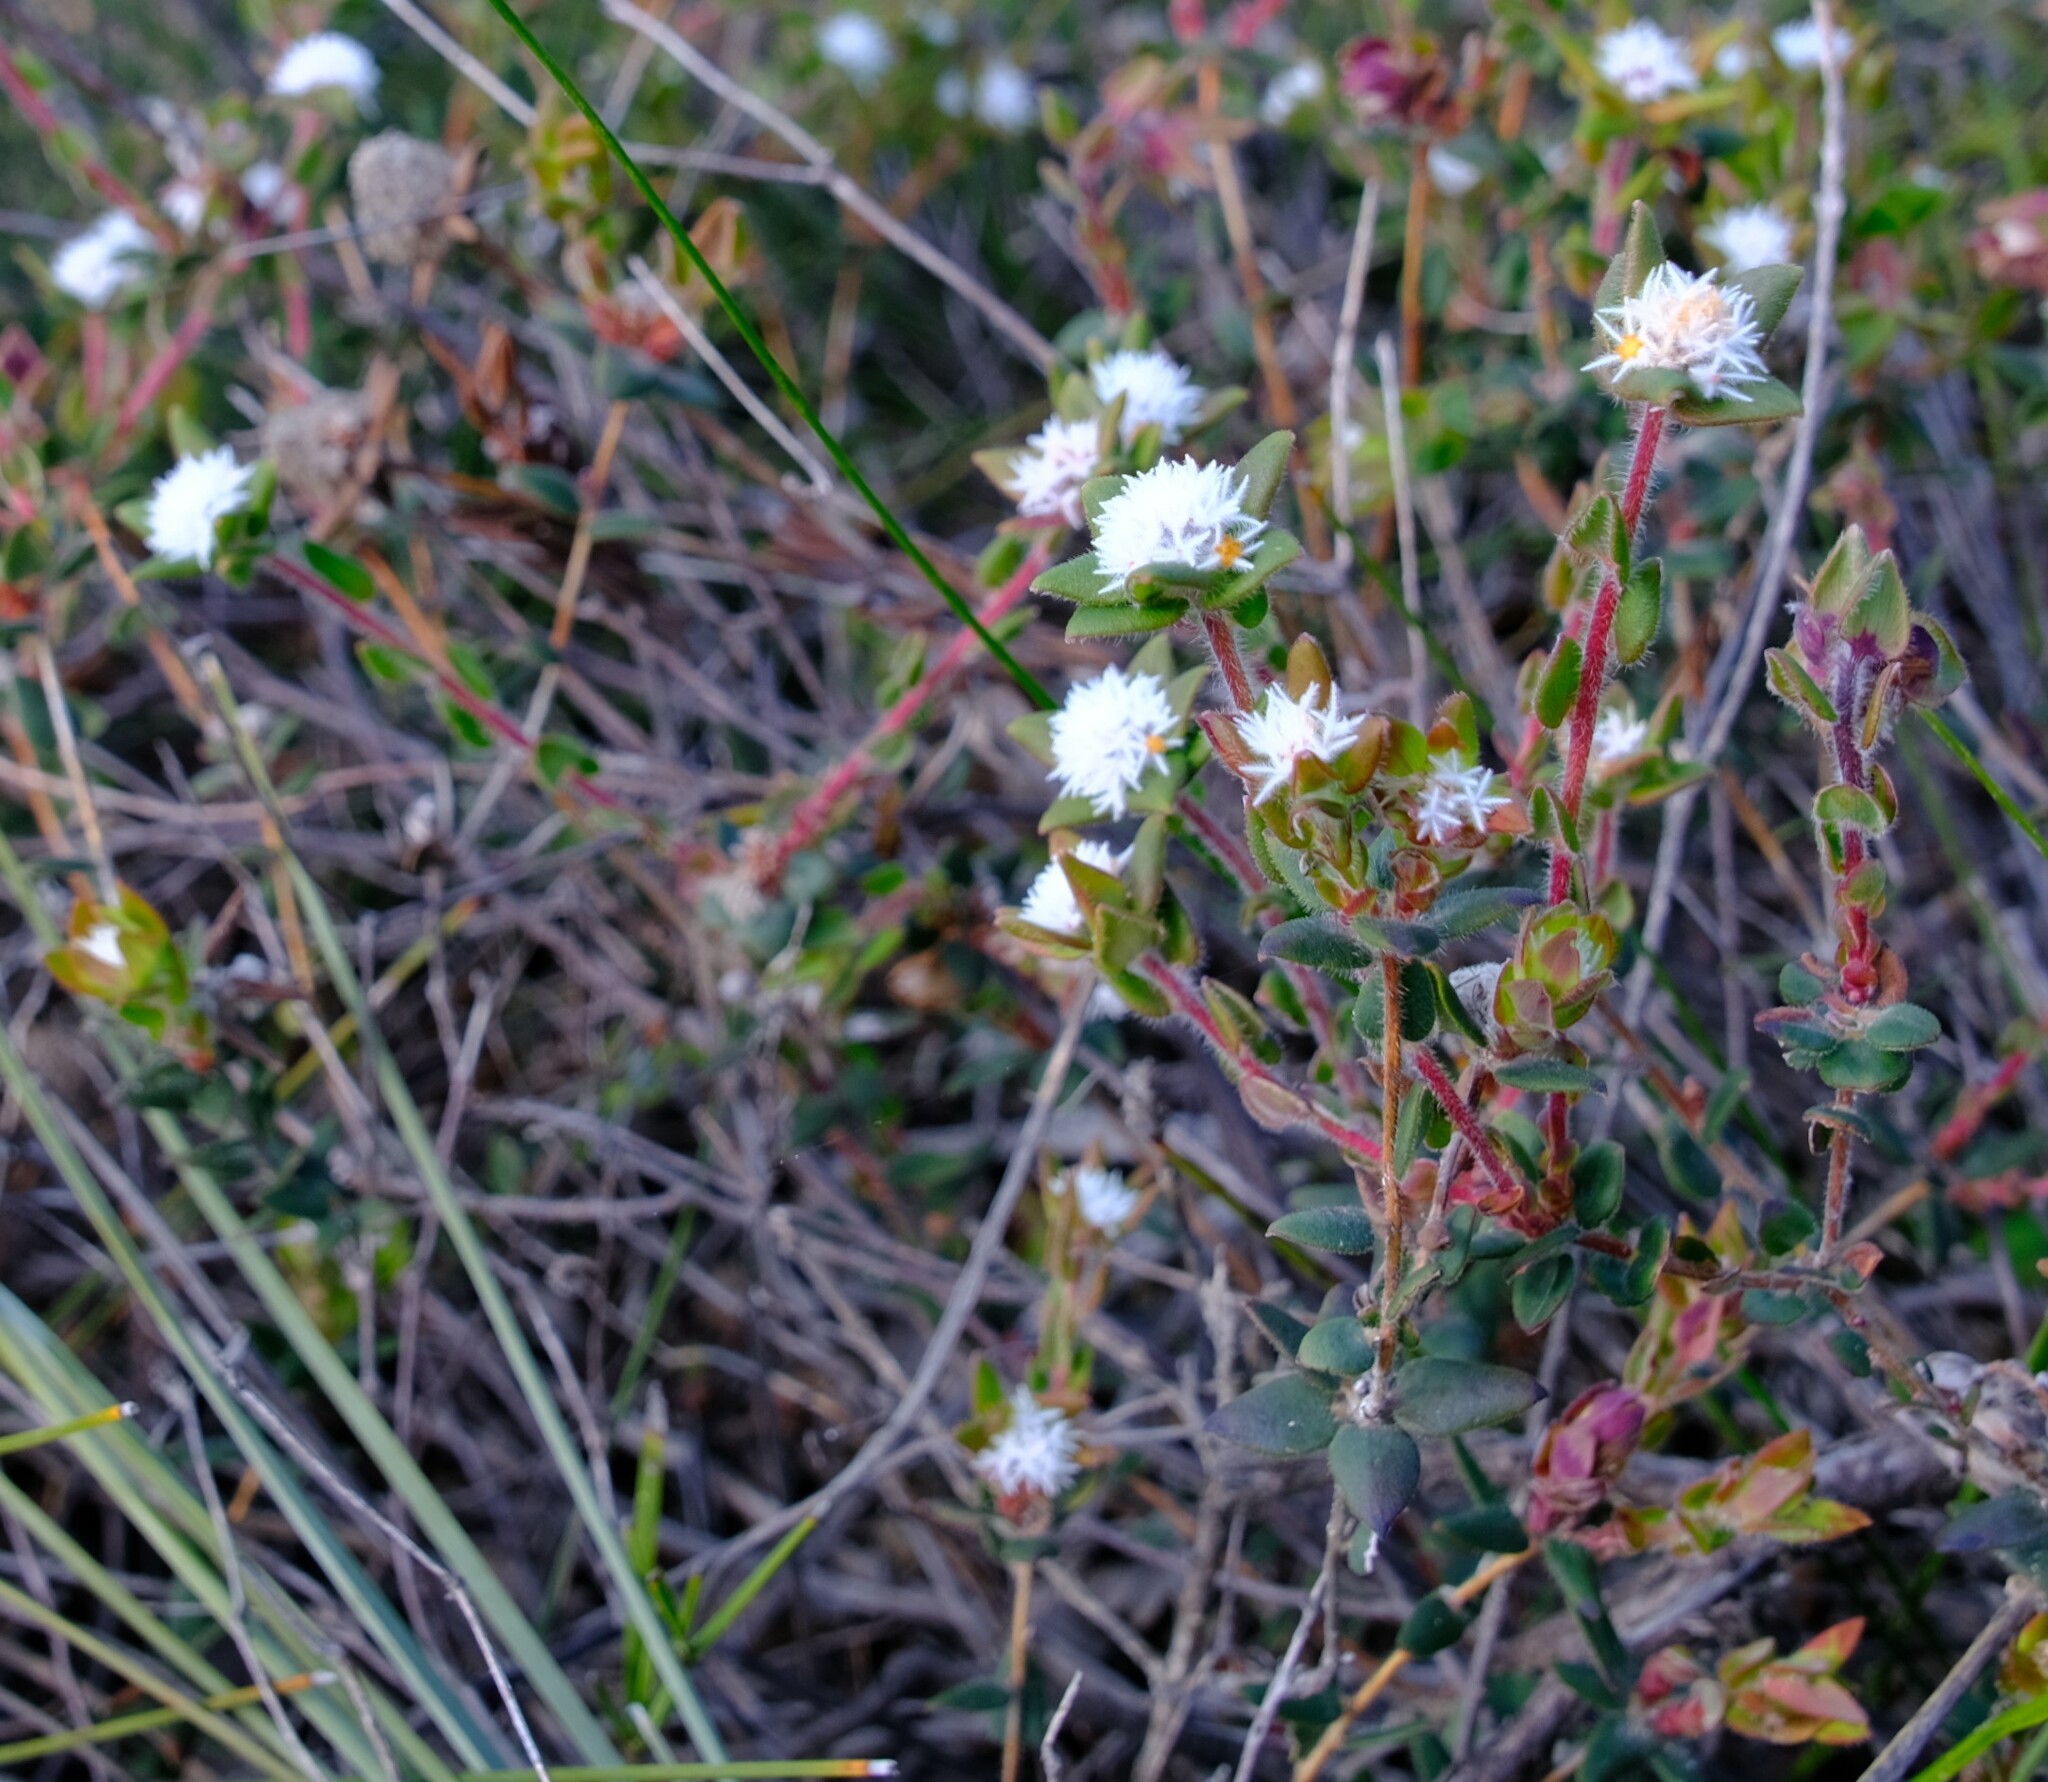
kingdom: Plantae
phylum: Tracheophyta
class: Magnoliopsida
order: Ericales
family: Ericaceae
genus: Leucopogon
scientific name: Leucopogon plumuliflorus
